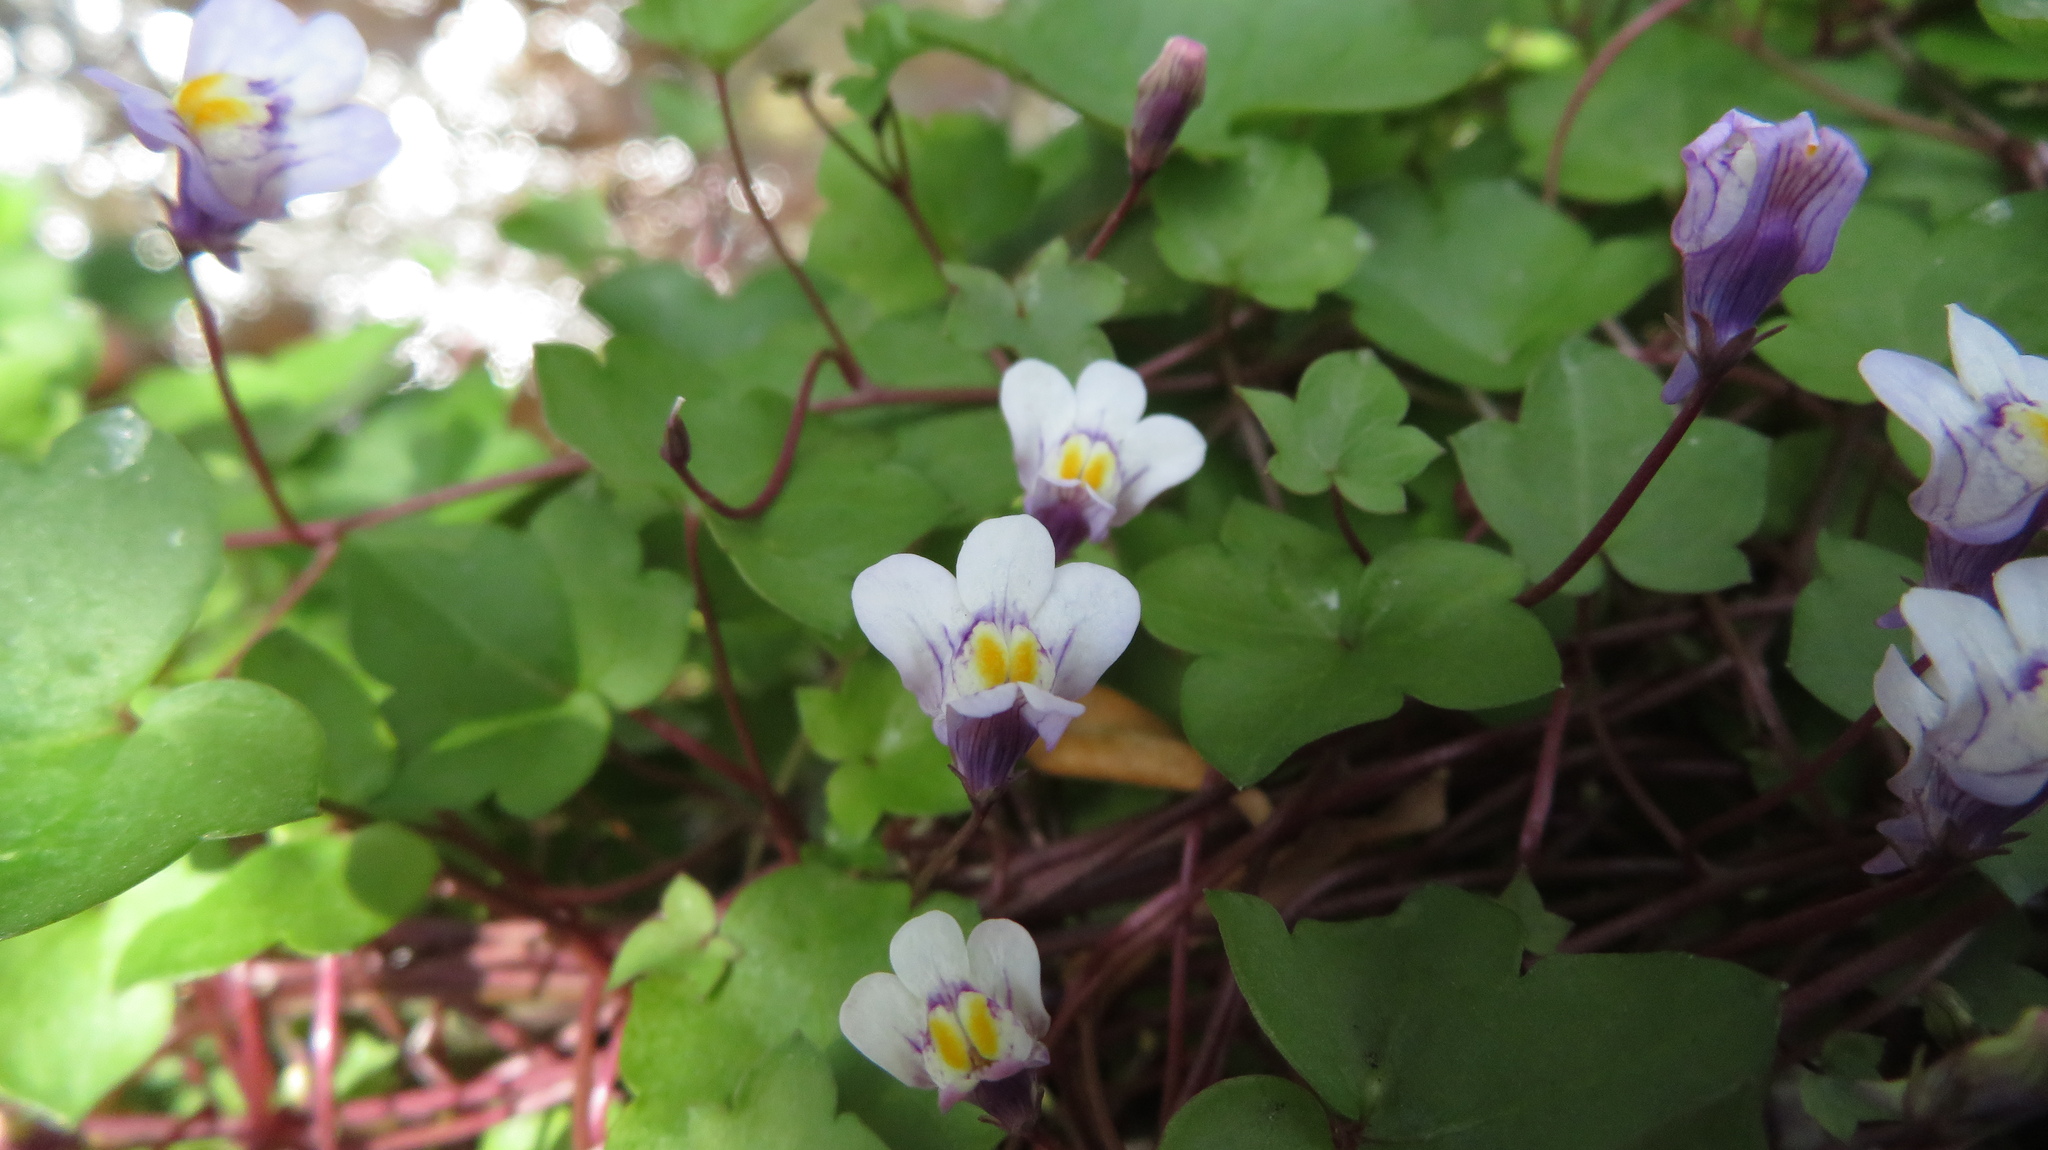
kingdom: Plantae
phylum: Tracheophyta
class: Magnoliopsida
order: Lamiales
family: Plantaginaceae
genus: Cymbalaria
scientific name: Cymbalaria muralis
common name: Ivy-leaved toadflax
